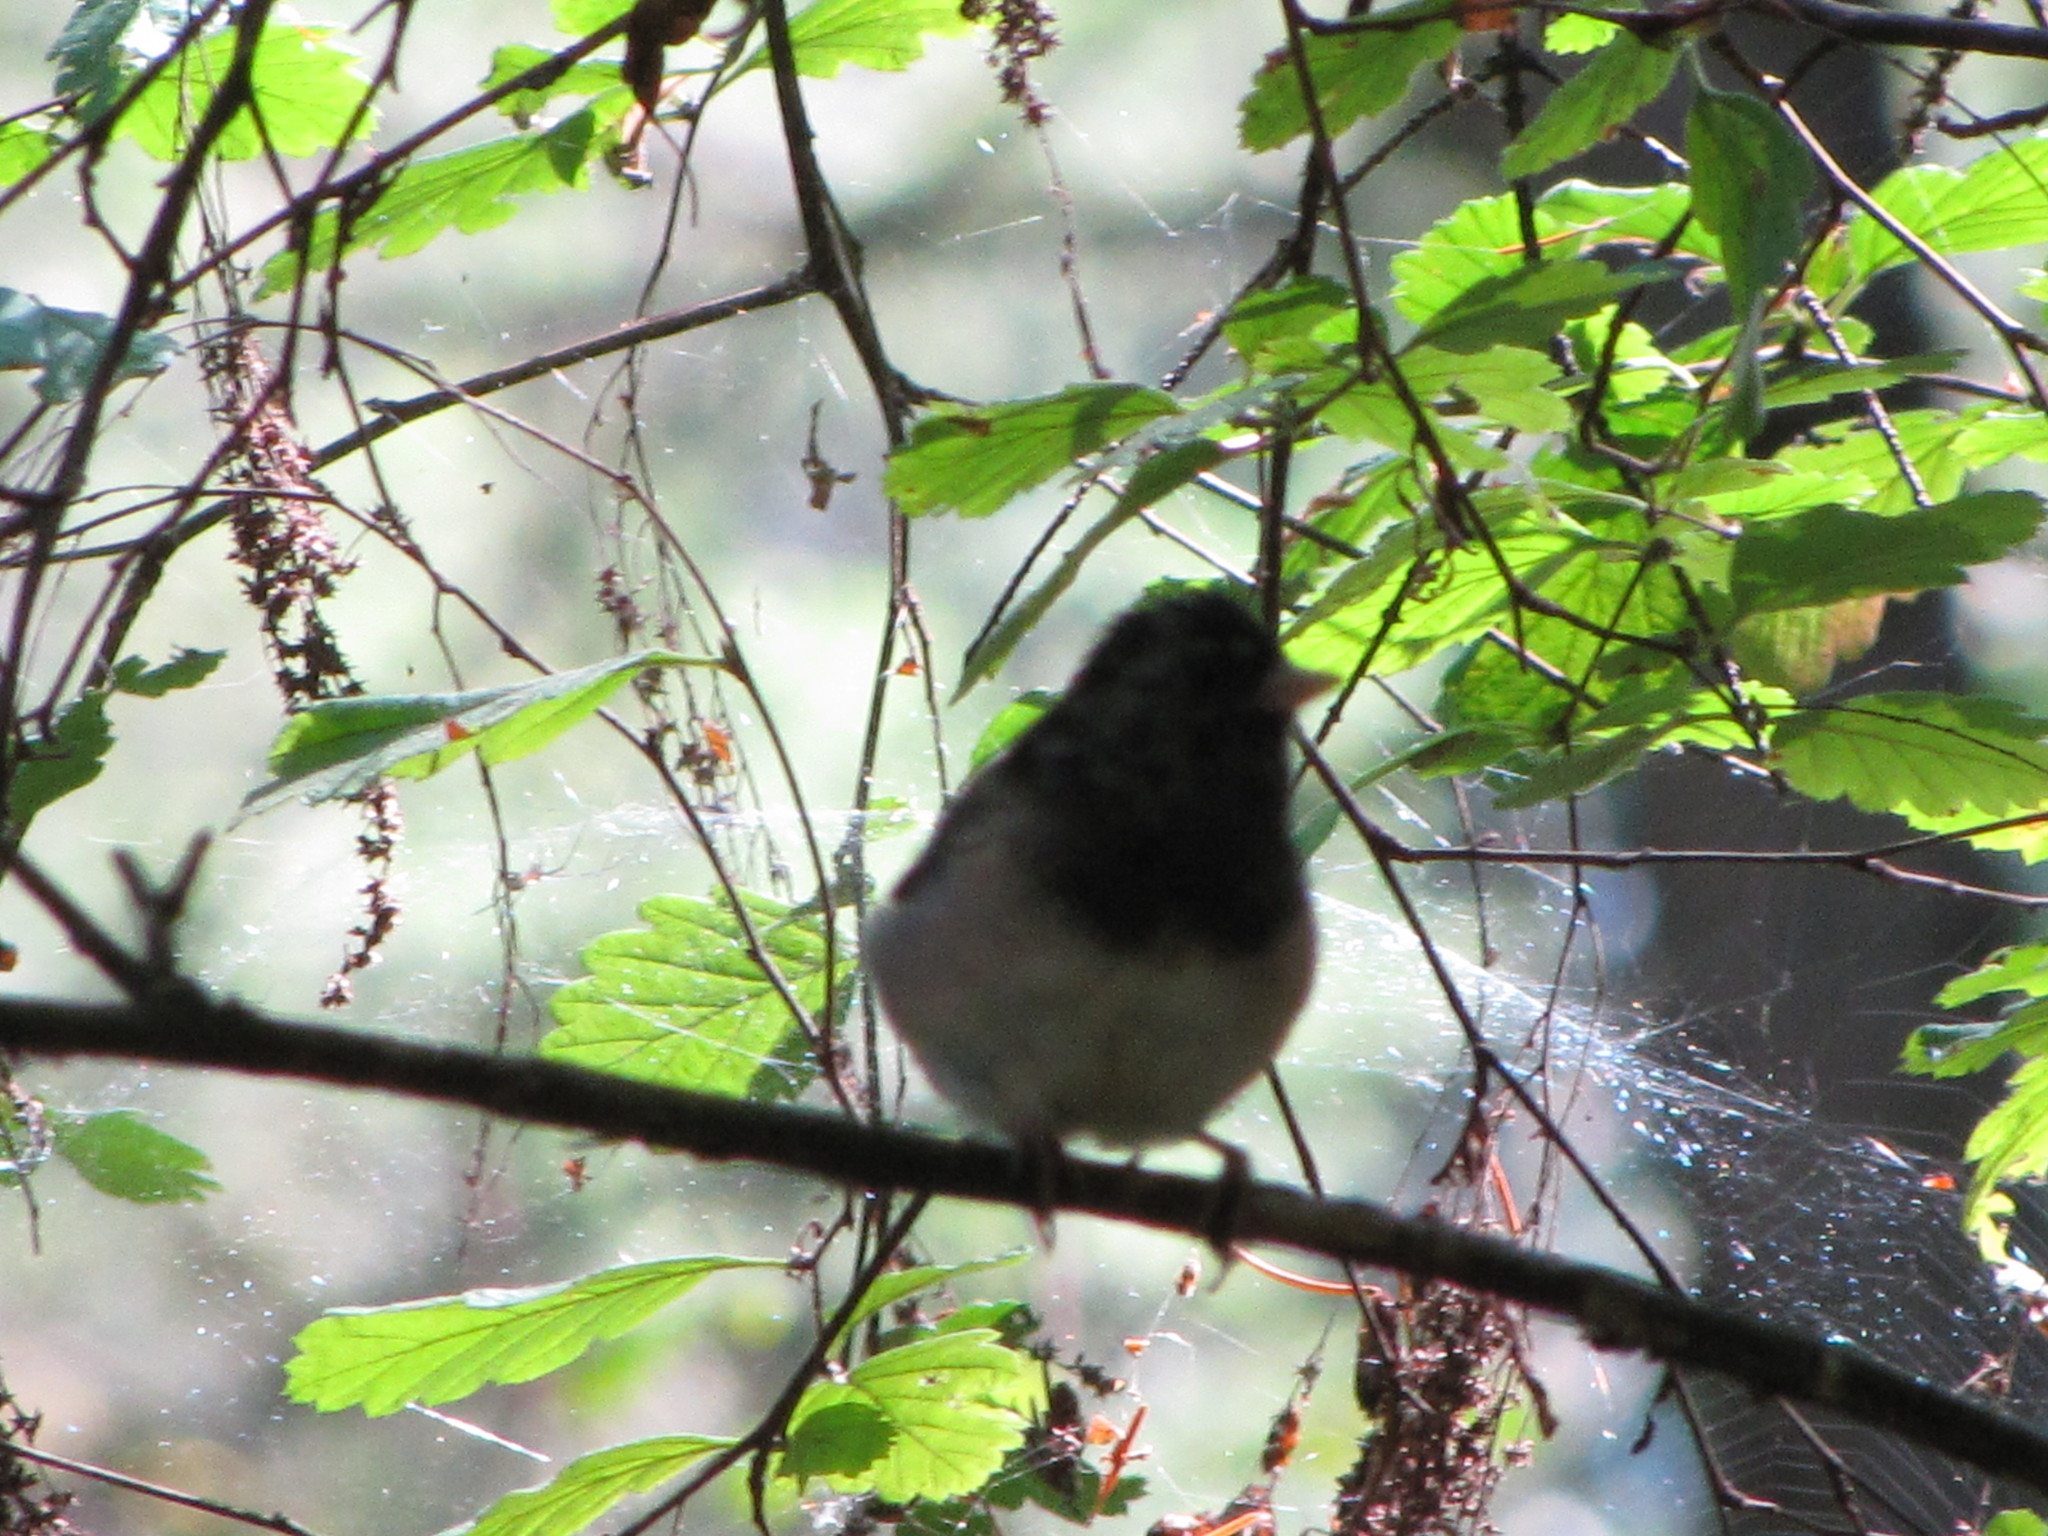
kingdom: Animalia
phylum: Chordata
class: Aves
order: Passeriformes
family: Passerellidae
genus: Junco
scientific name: Junco hyemalis
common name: Dark-eyed junco
